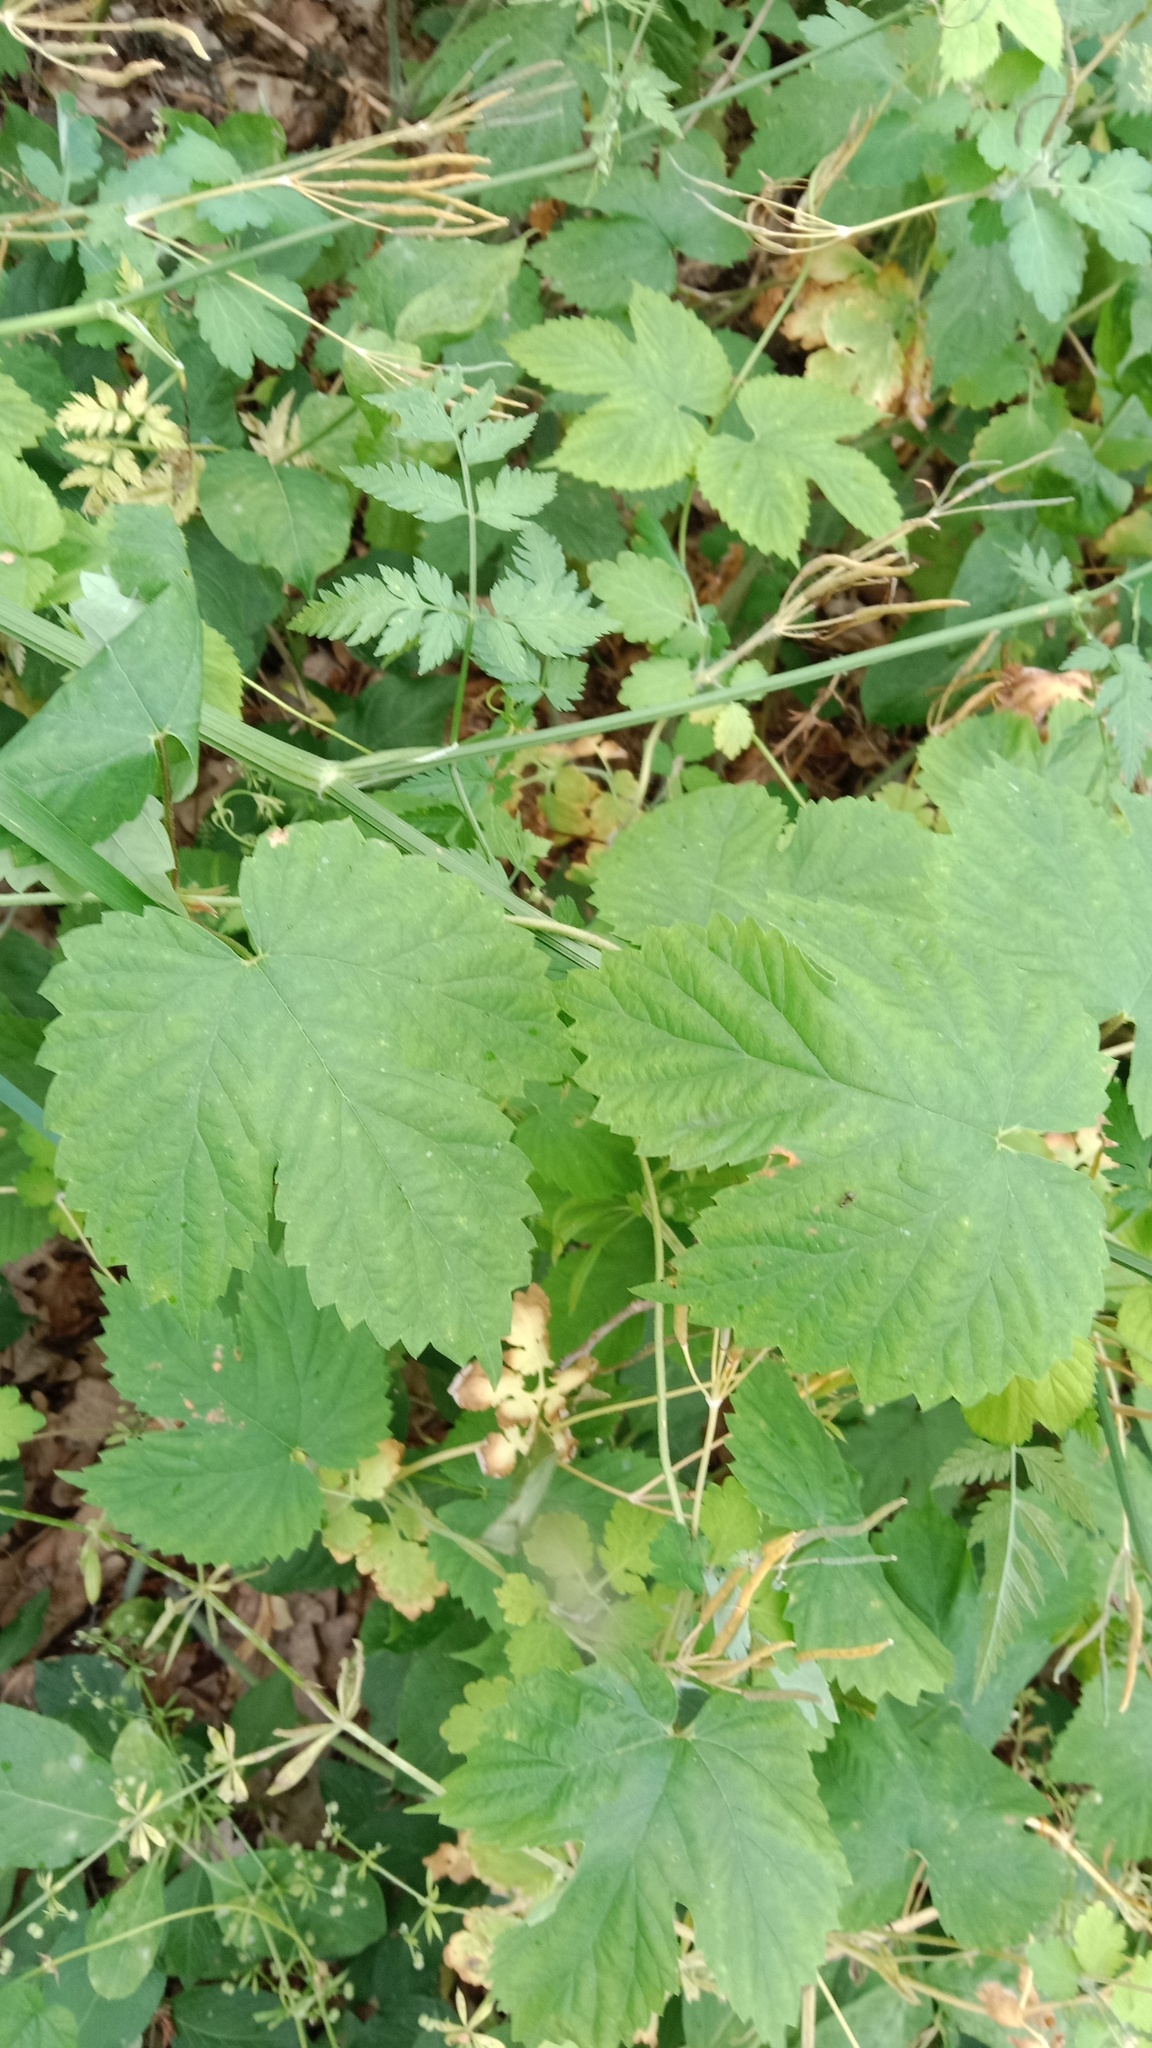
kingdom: Plantae
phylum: Tracheophyta
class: Magnoliopsida
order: Rosales
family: Cannabaceae
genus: Humulus
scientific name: Humulus lupulus
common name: Hop
